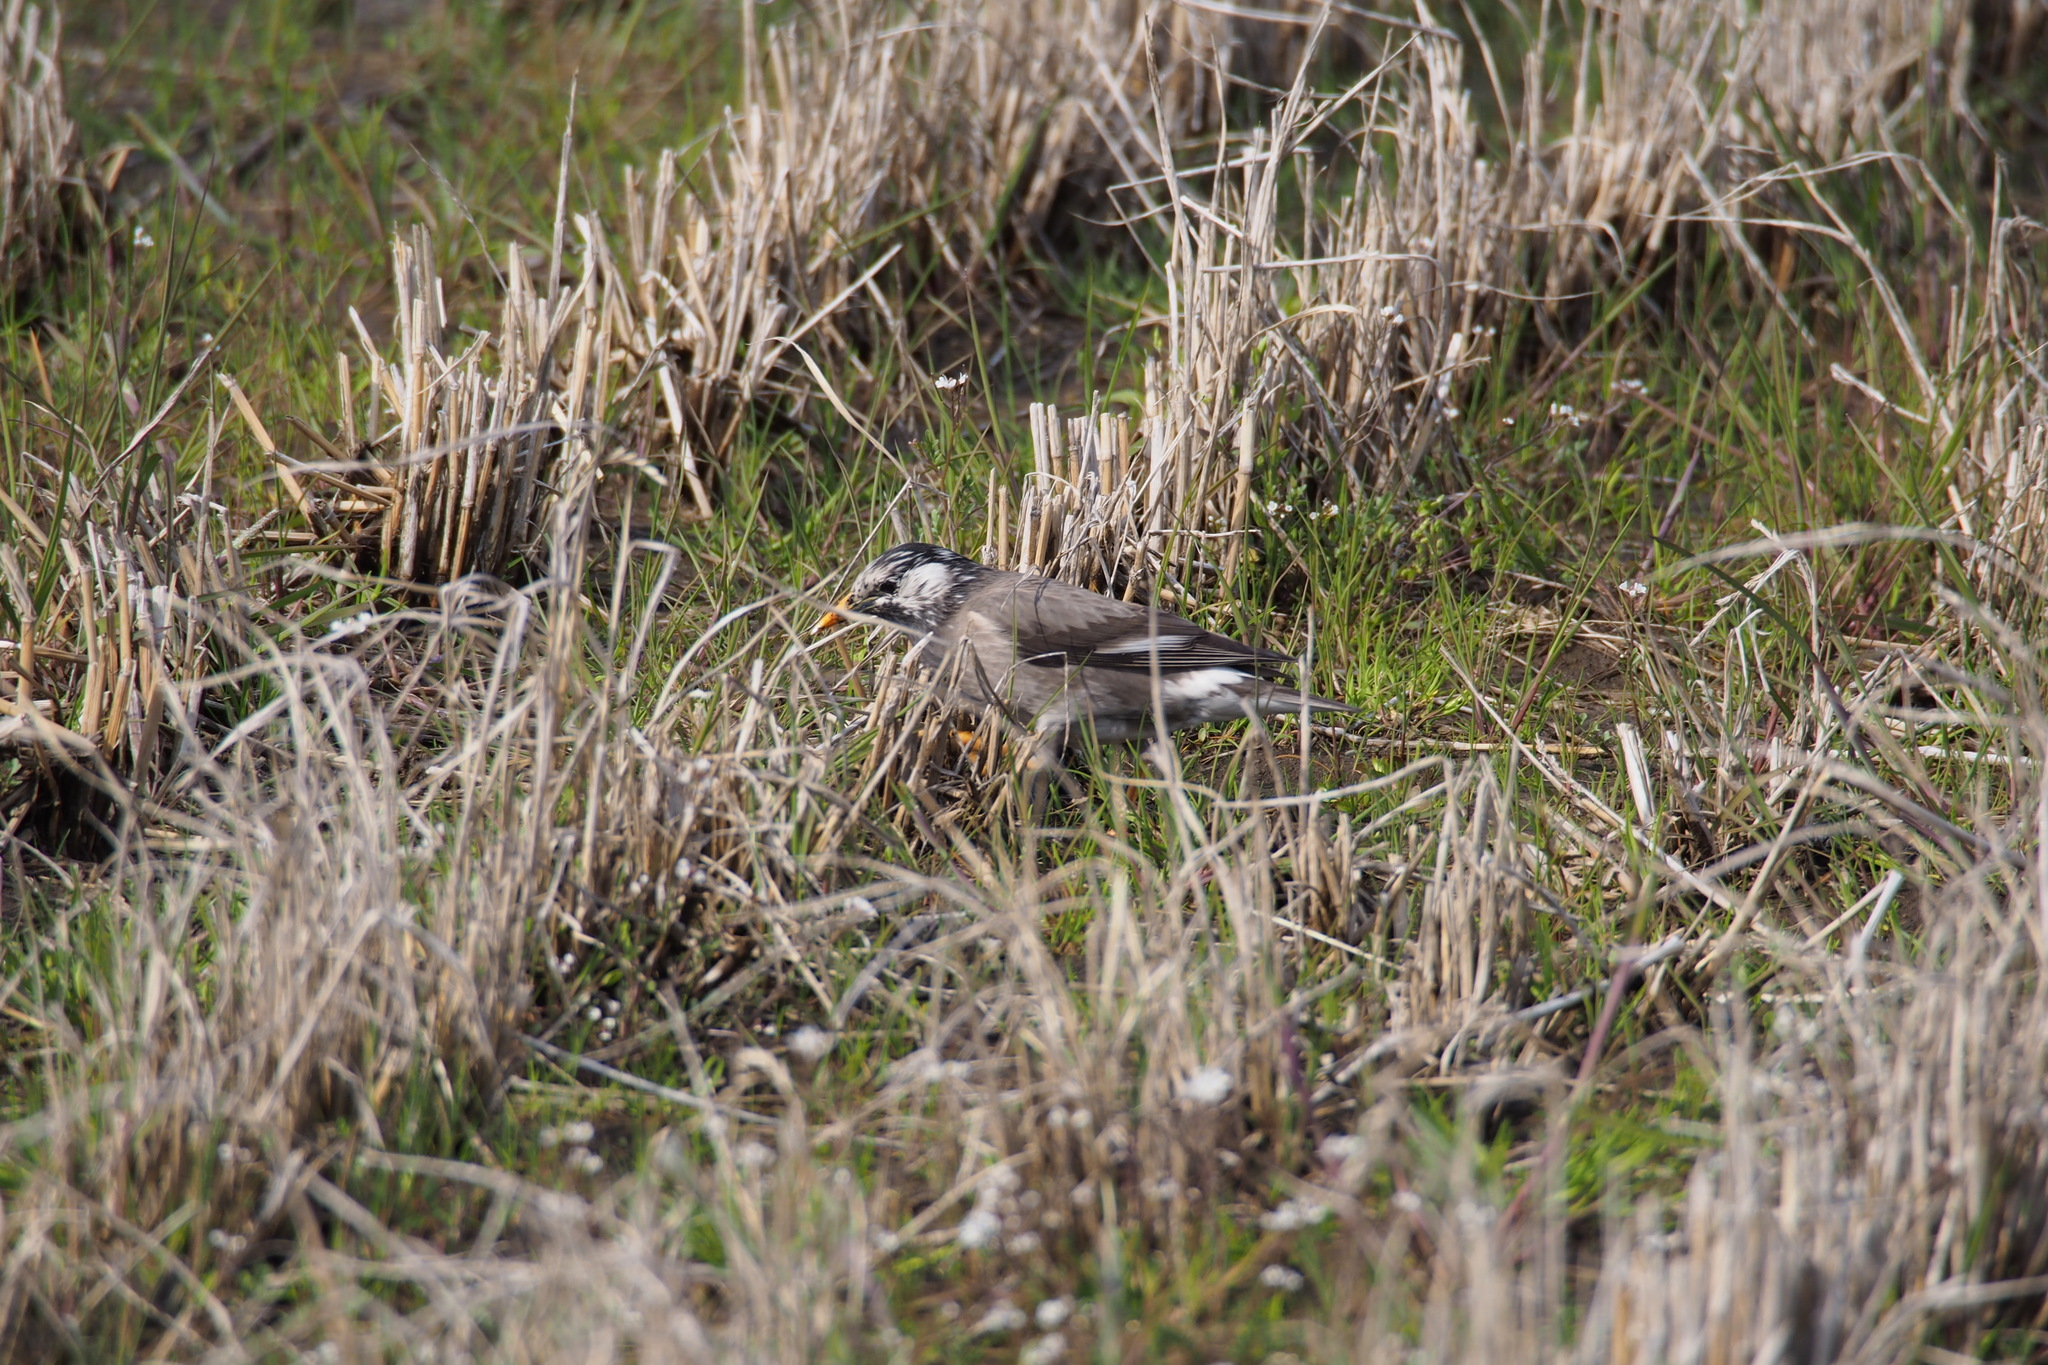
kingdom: Animalia
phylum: Chordata
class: Aves
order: Passeriformes
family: Sturnidae
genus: Spodiopsar
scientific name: Spodiopsar cineraceus
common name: White-cheeked starling
